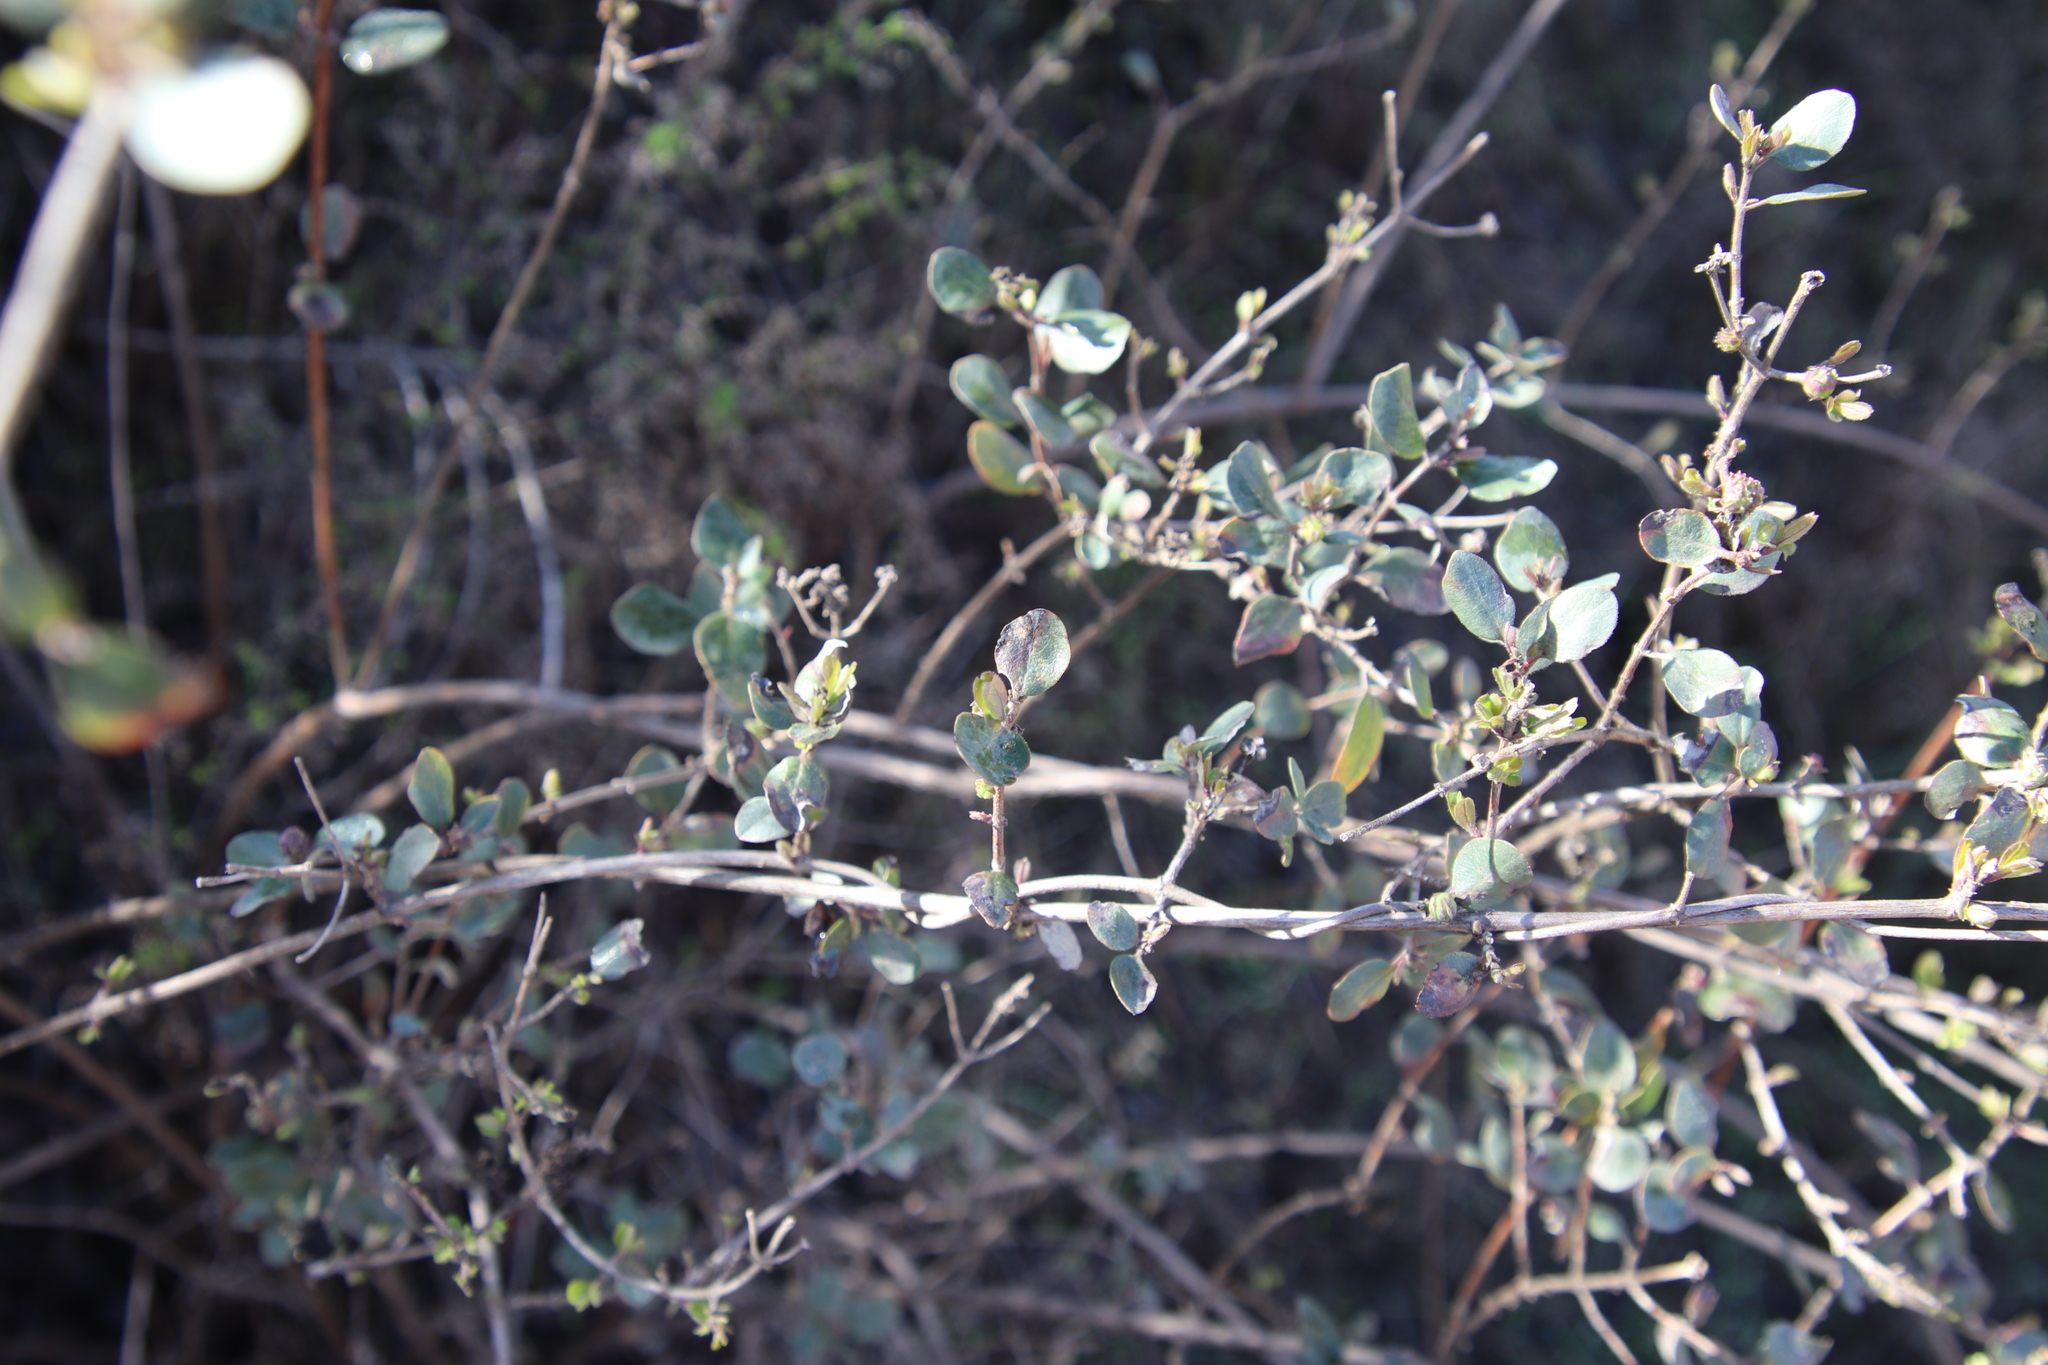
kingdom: Plantae
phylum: Tracheophyta
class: Magnoliopsida
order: Dipsacales
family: Caprifoliaceae
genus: Lonicera
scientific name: Lonicera subspicata
